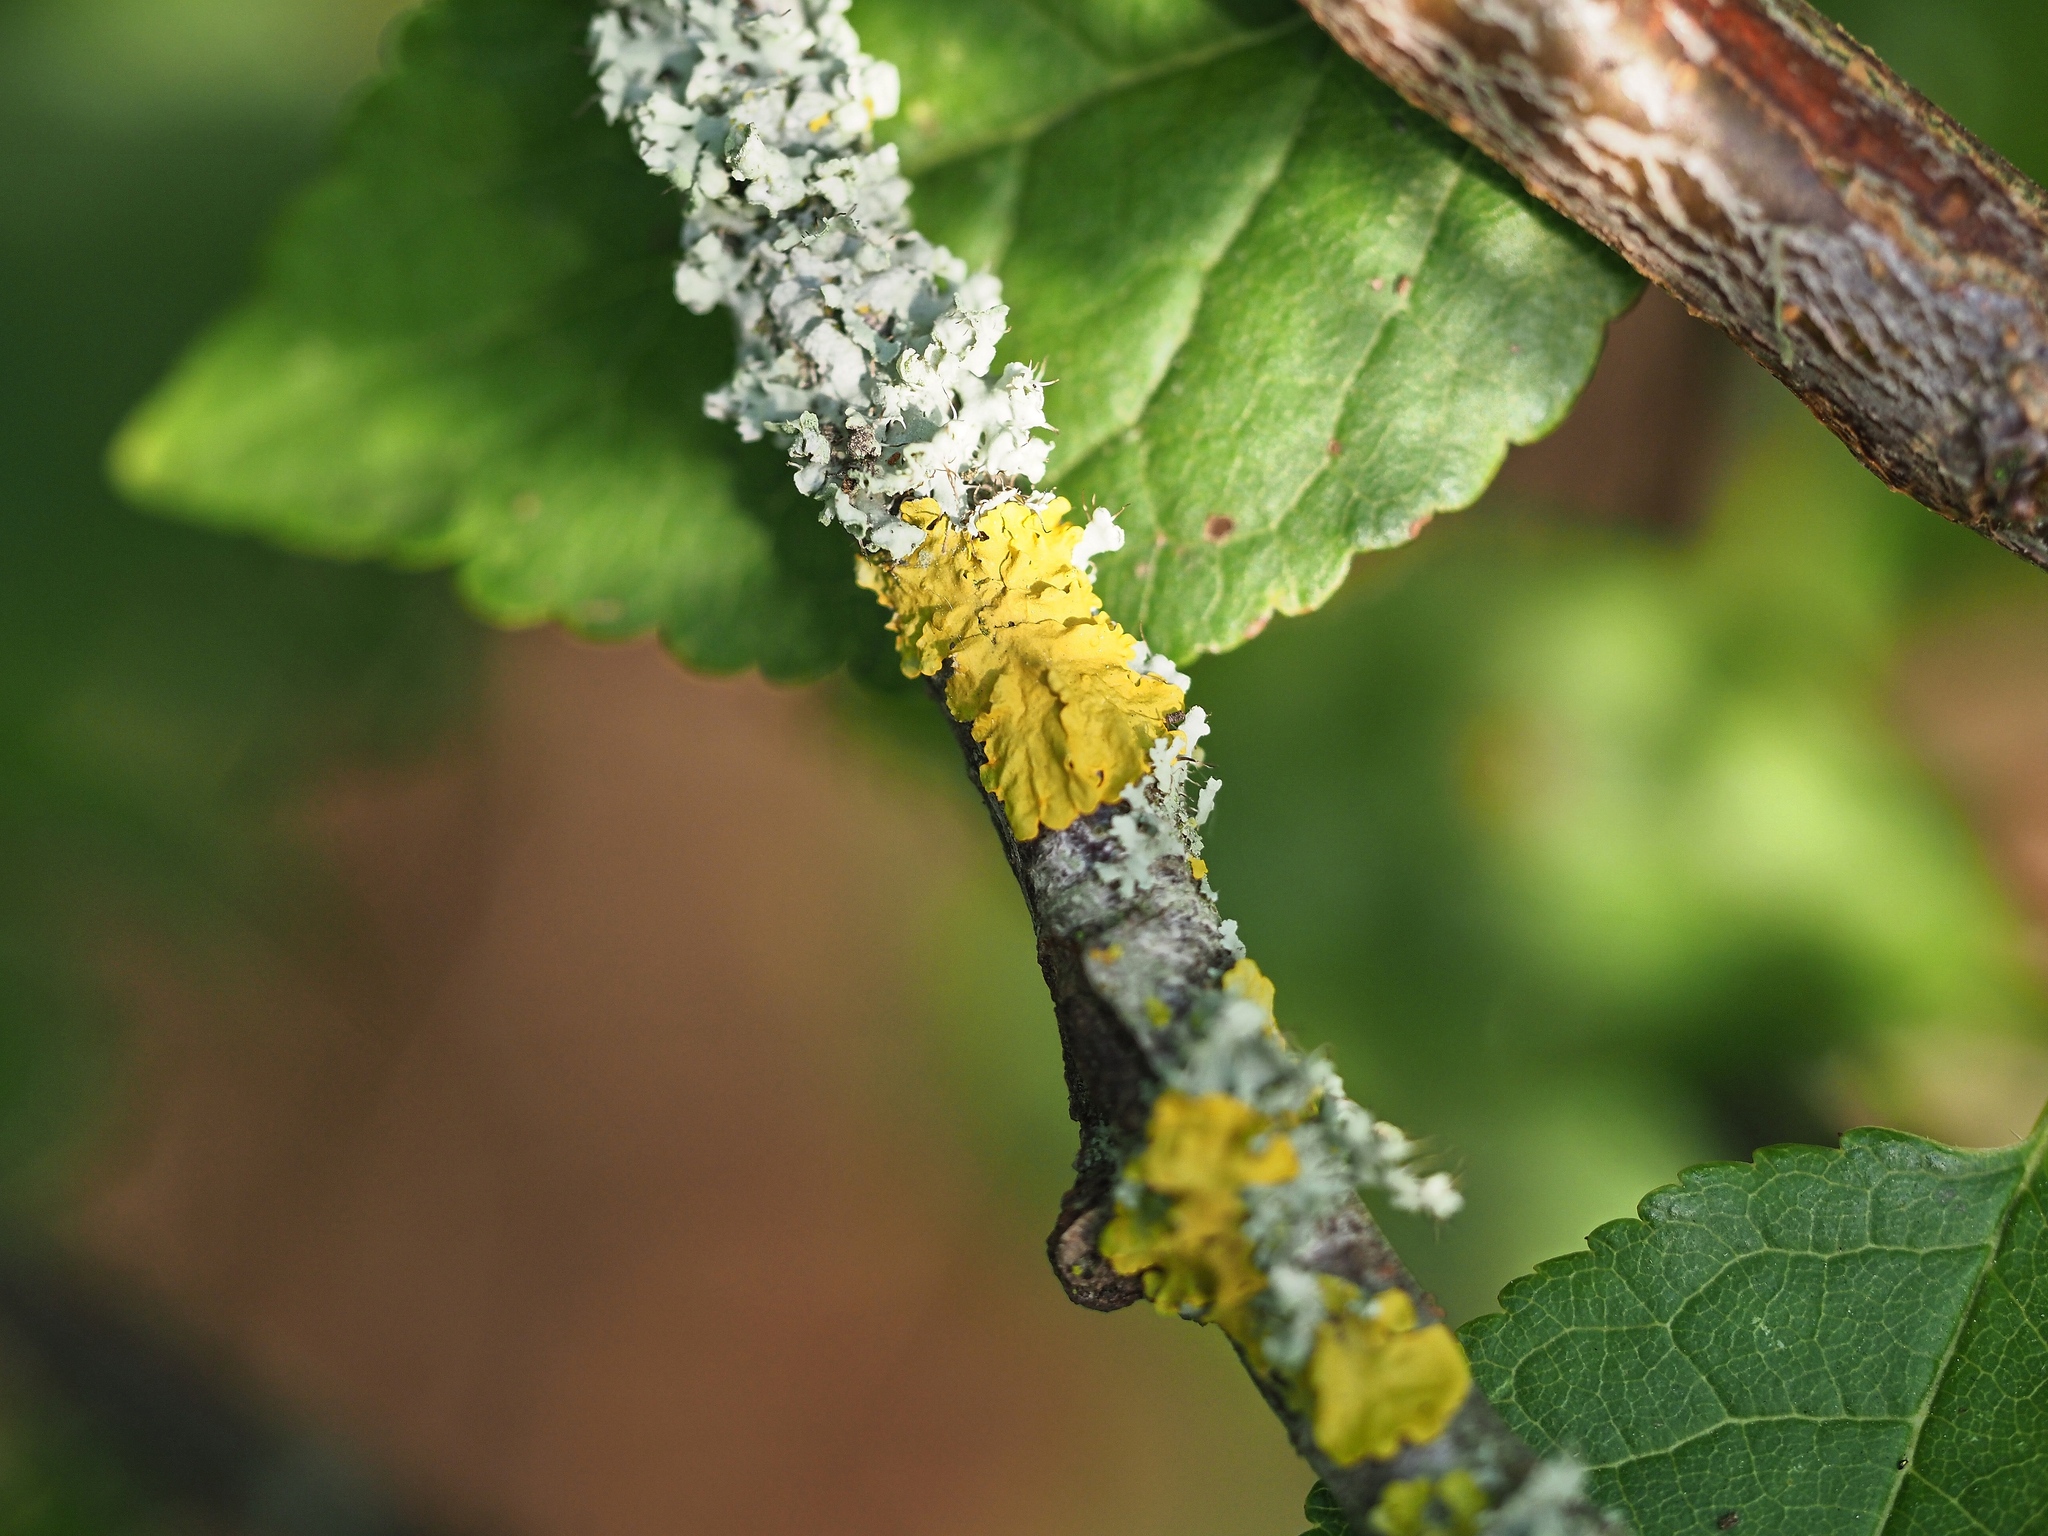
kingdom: Fungi
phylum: Ascomycota
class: Lecanoromycetes
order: Teloschistales
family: Teloschistaceae
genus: Xanthoria
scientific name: Xanthoria parietina
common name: Common orange lichen
